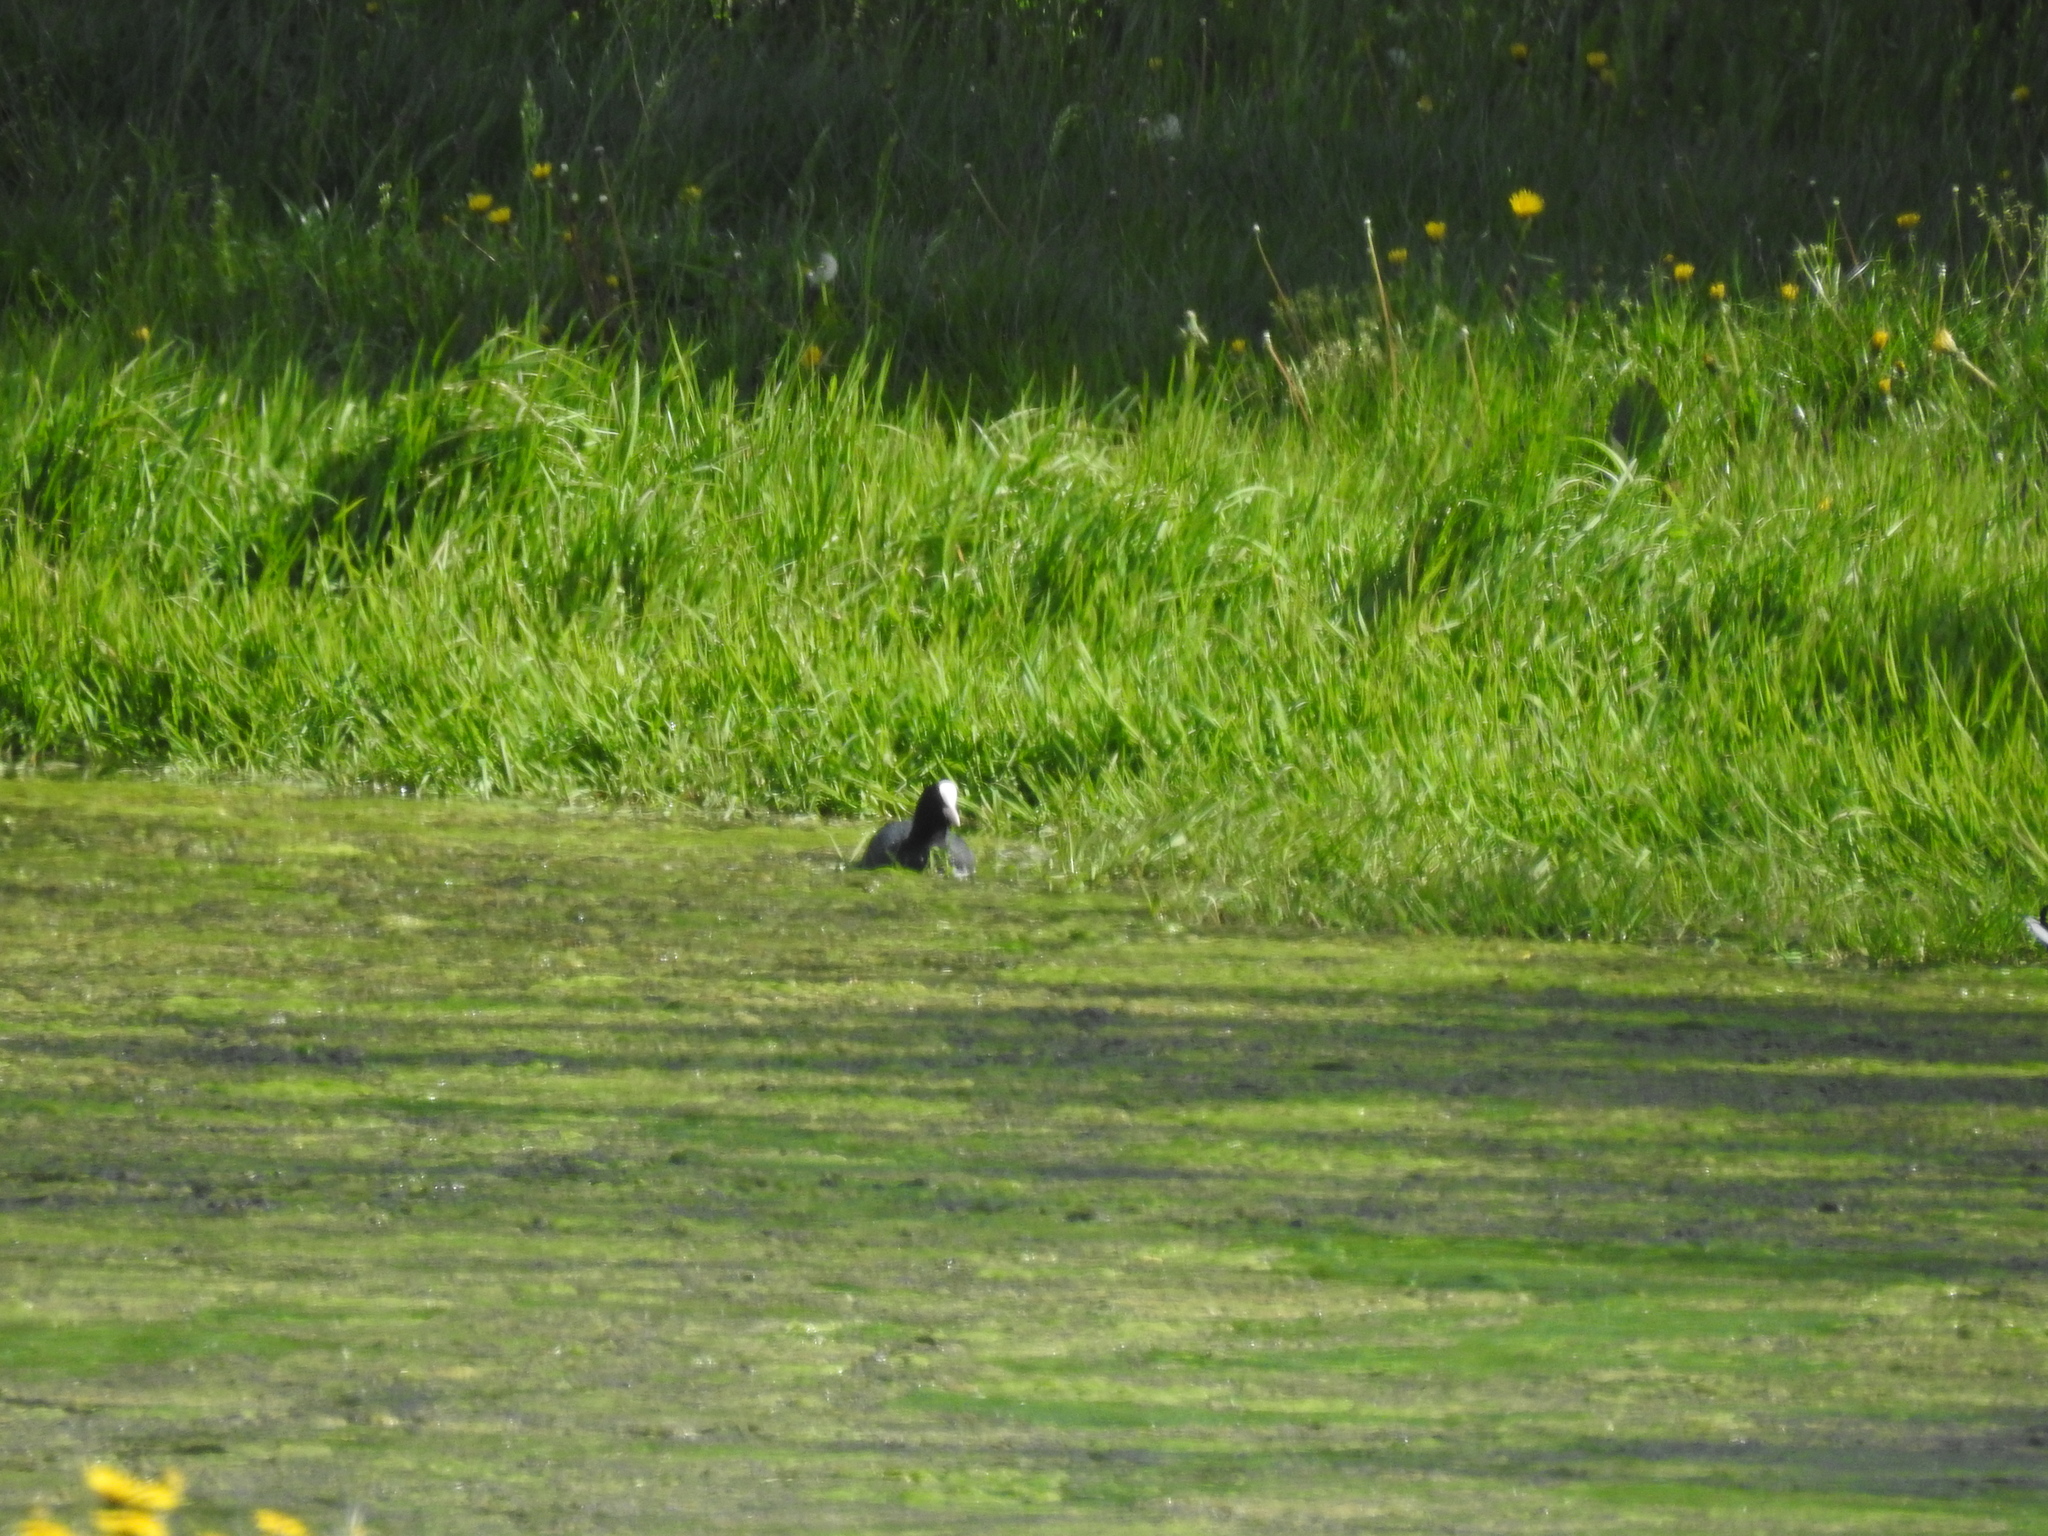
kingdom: Animalia
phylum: Chordata
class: Aves
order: Gruiformes
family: Rallidae
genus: Fulica
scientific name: Fulica atra
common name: Eurasian coot
